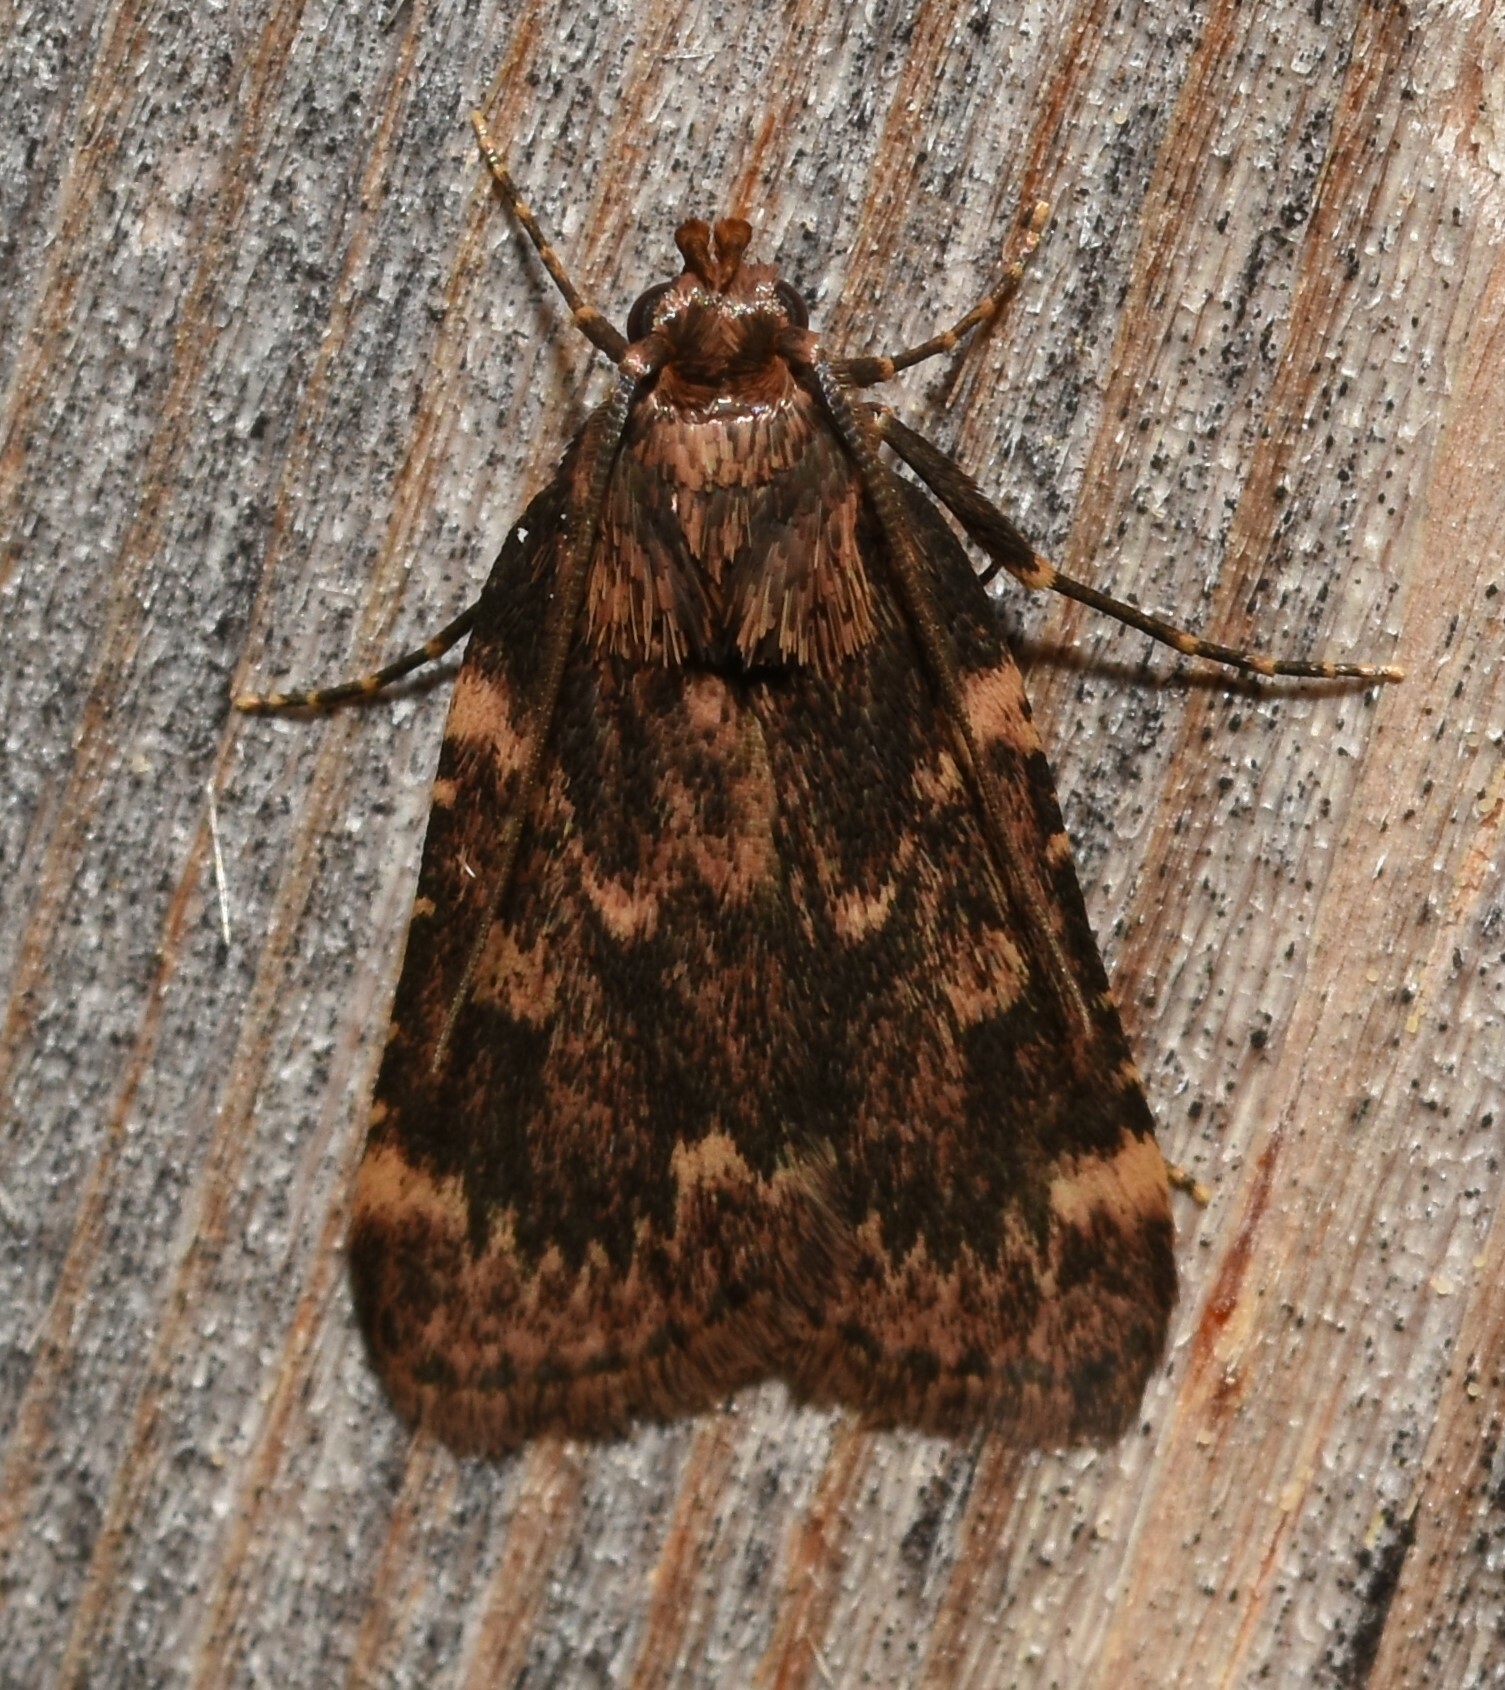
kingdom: Animalia
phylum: Arthropoda
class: Insecta
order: Lepidoptera
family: Pyralidae
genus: Aglossa
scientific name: Aglossa cuprina
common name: Grease moth
